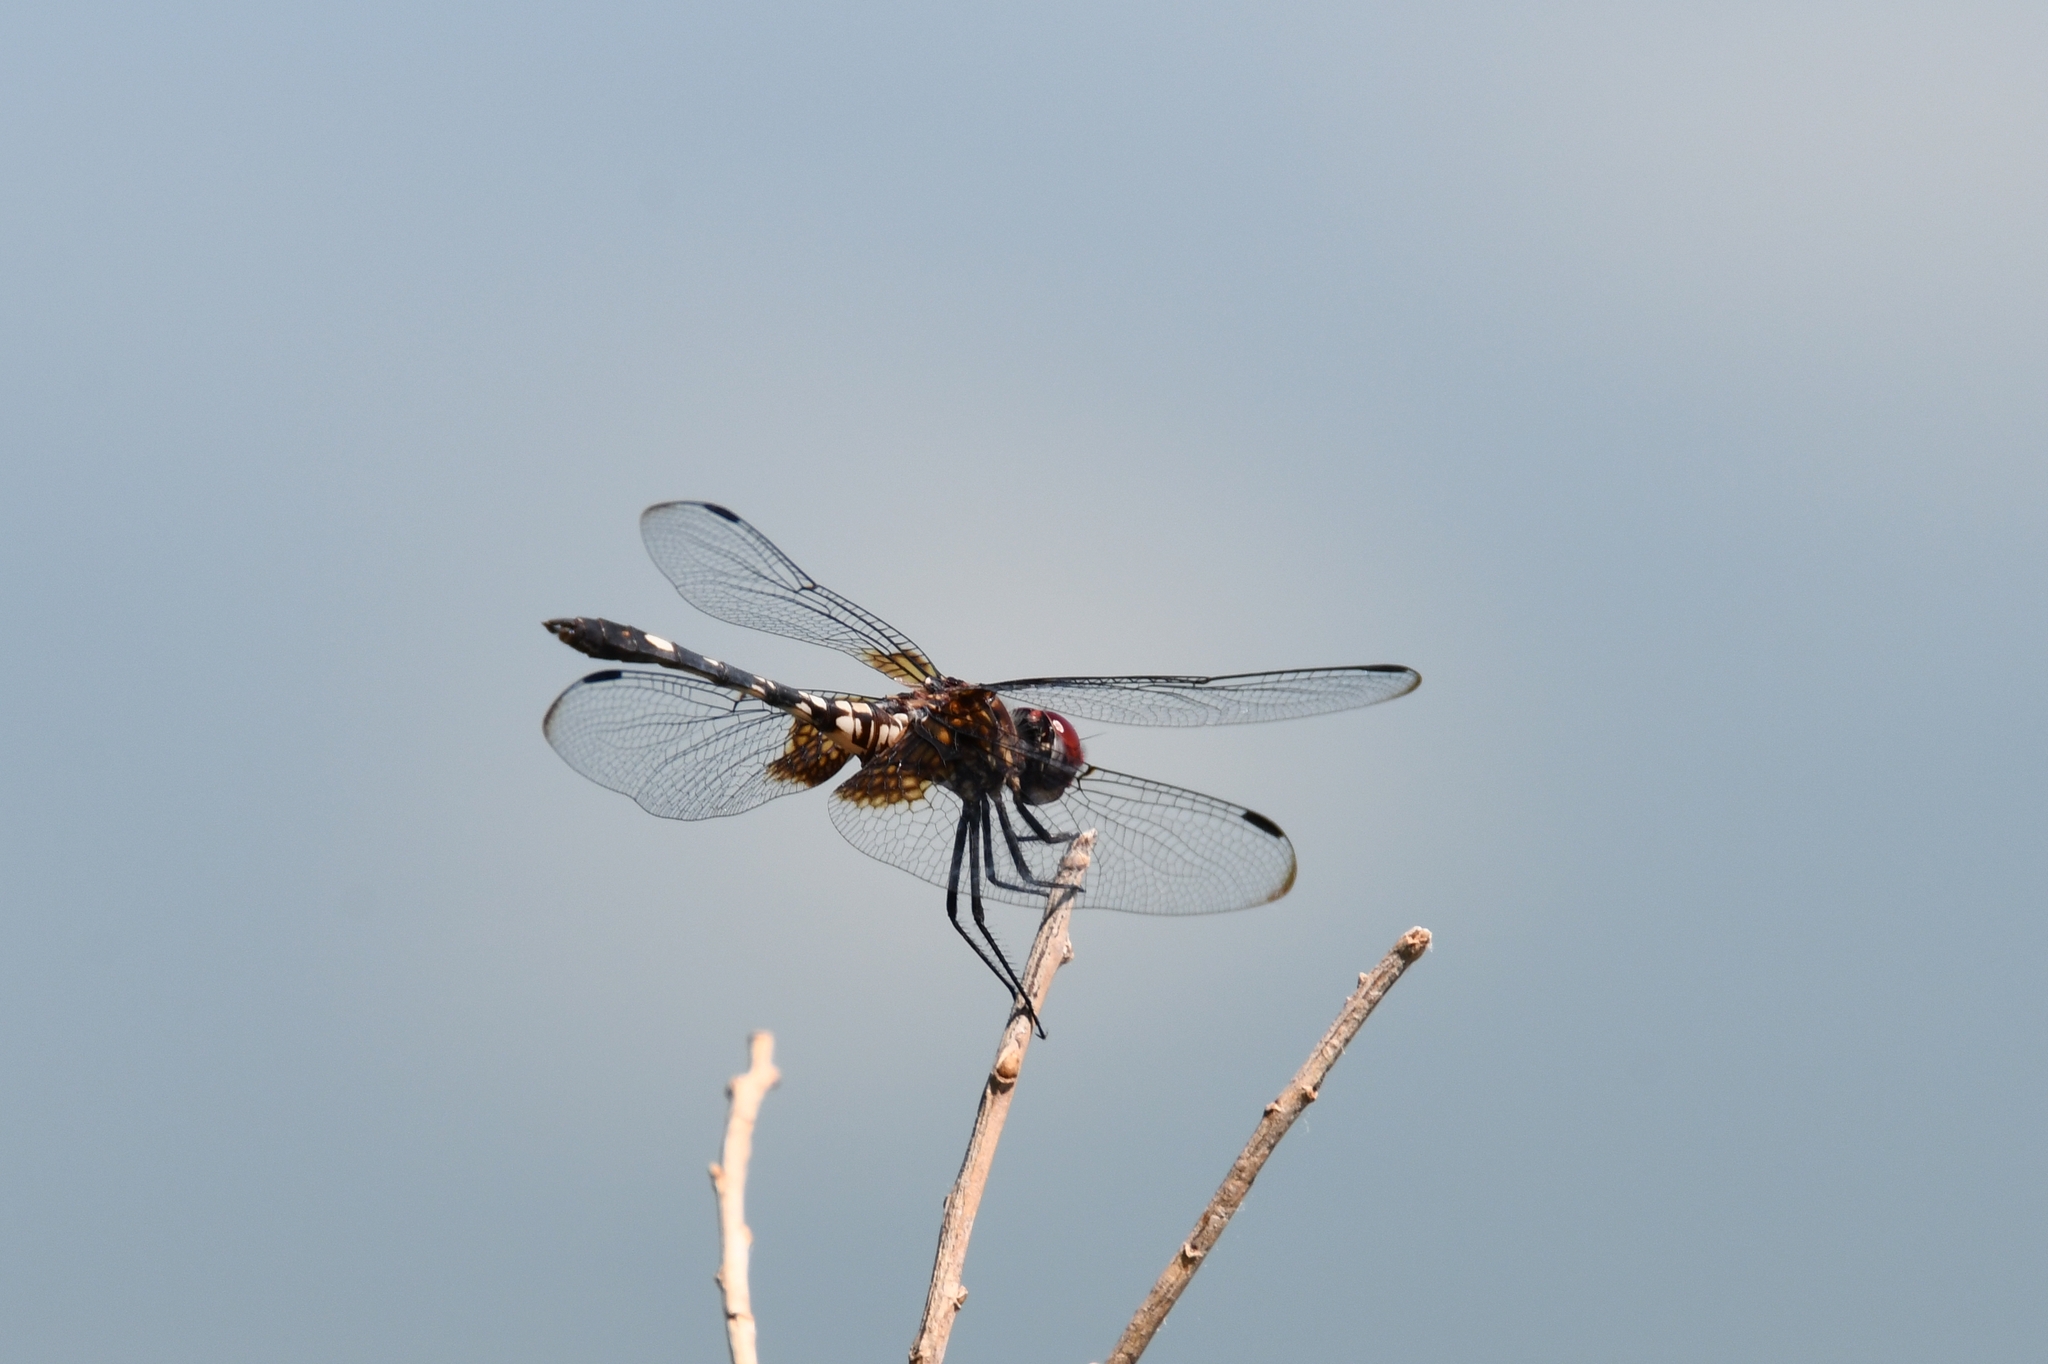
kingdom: Animalia
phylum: Arthropoda
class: Insecta
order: Odonata
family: Libellulidae
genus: Dythemis
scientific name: Dythemis fugax
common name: Checkered setwing
